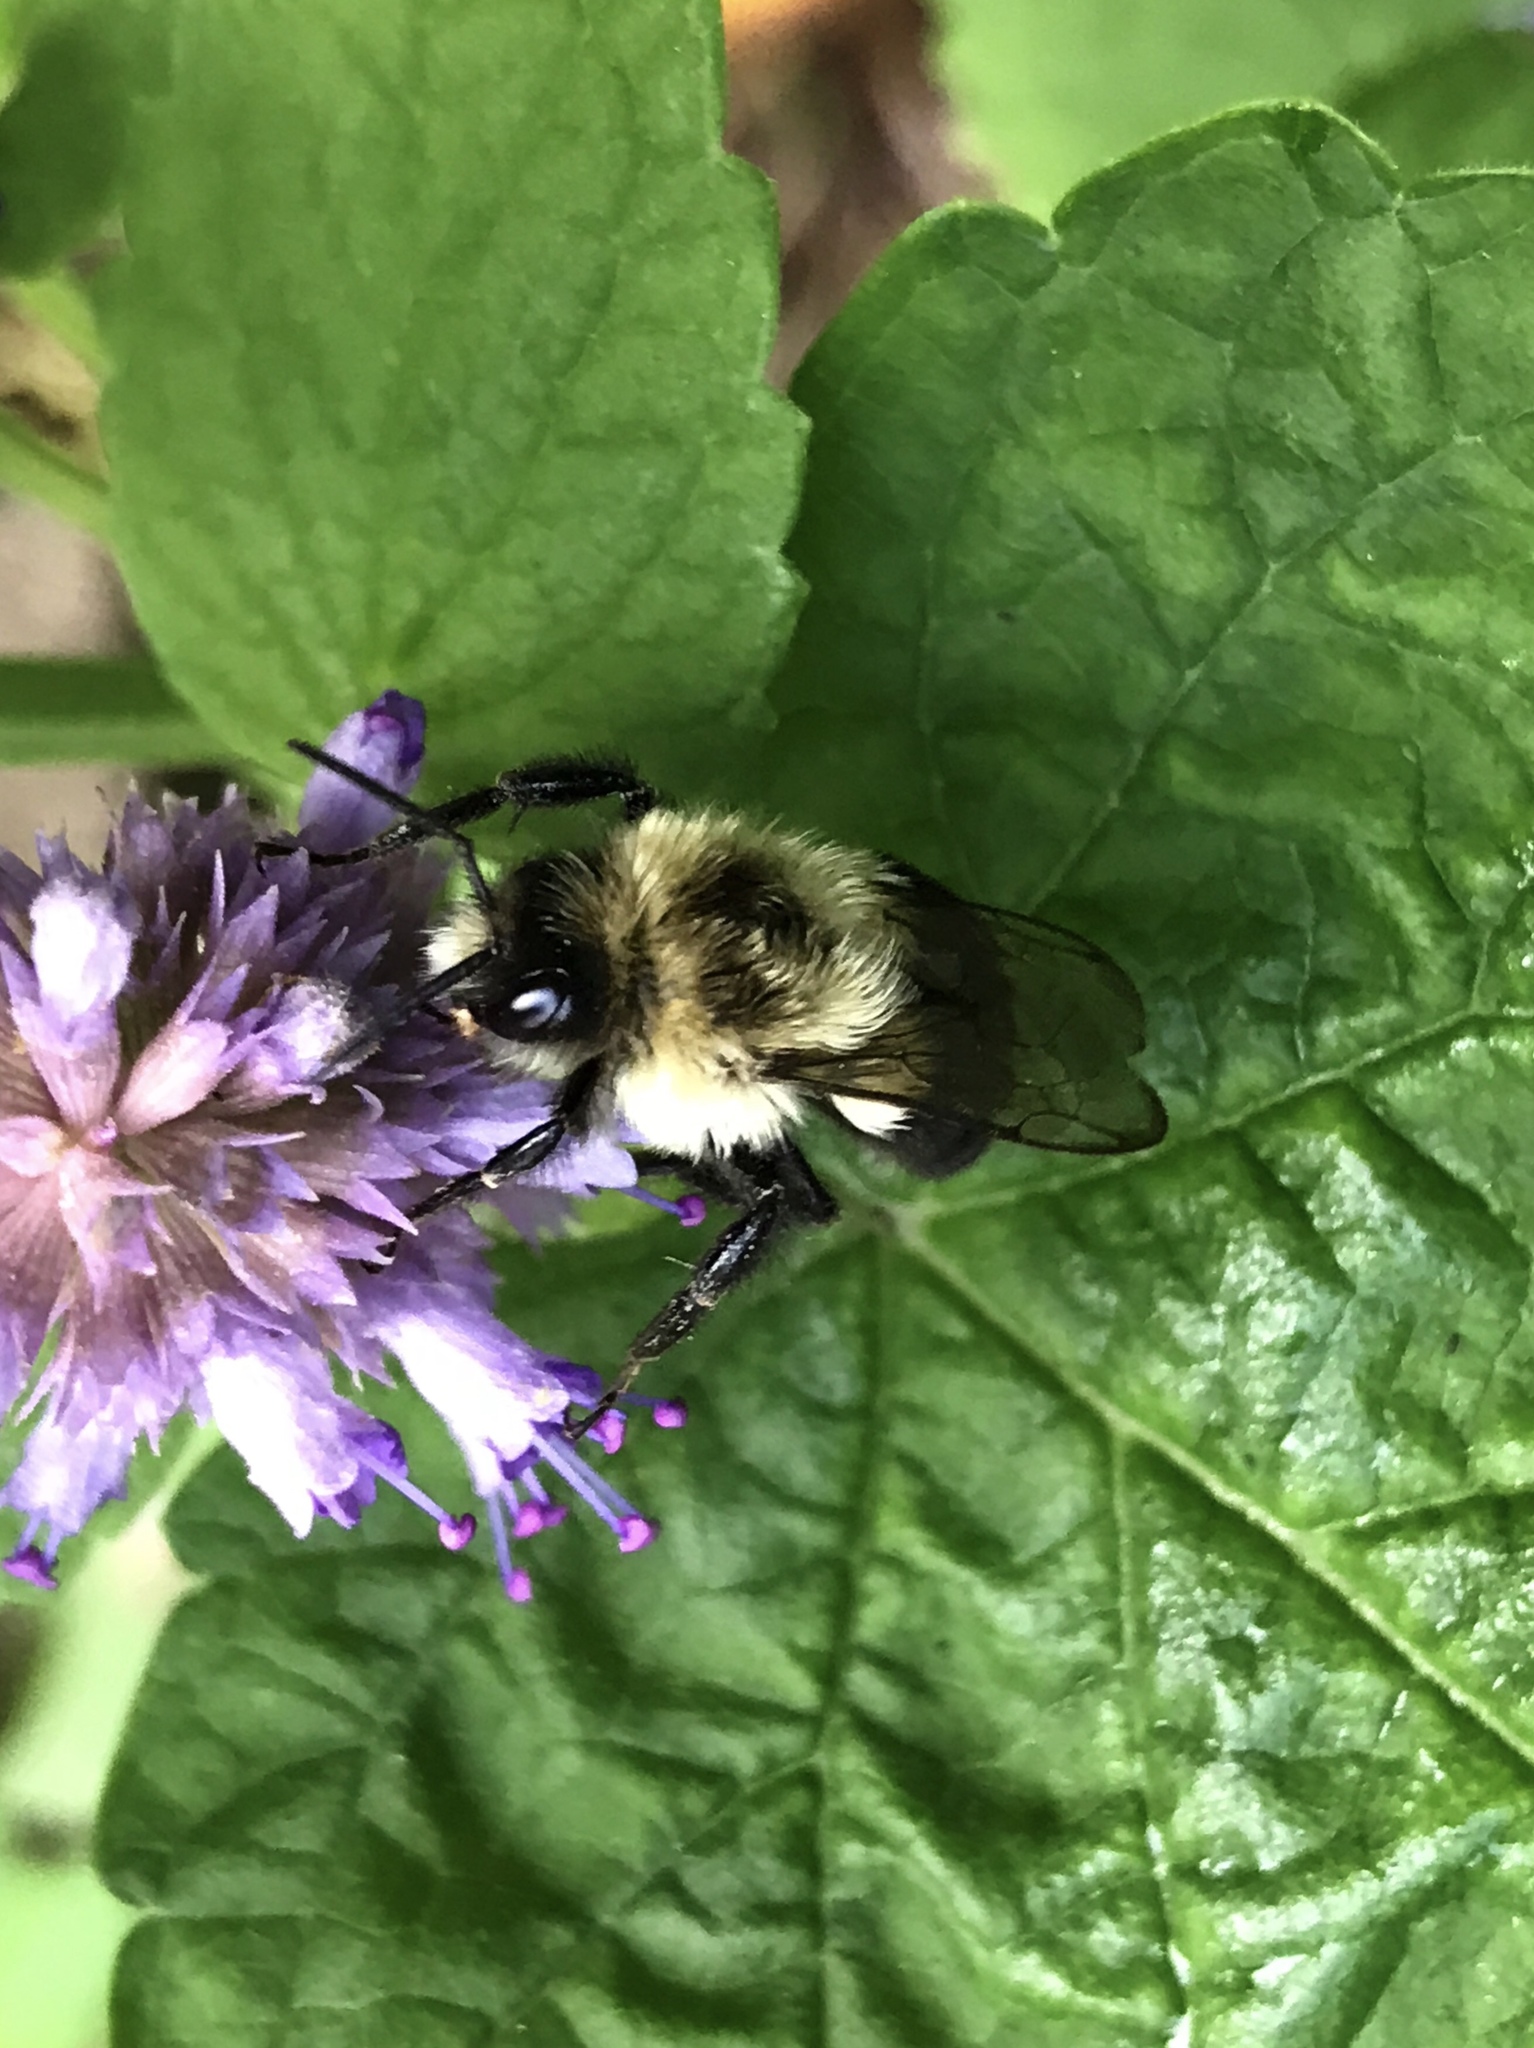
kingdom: Animalia
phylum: Arthropoda
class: Insecta
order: Hymenoptera
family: Apidae
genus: Bombus
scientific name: Bombus impatiens
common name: Common eastern bumble bee
